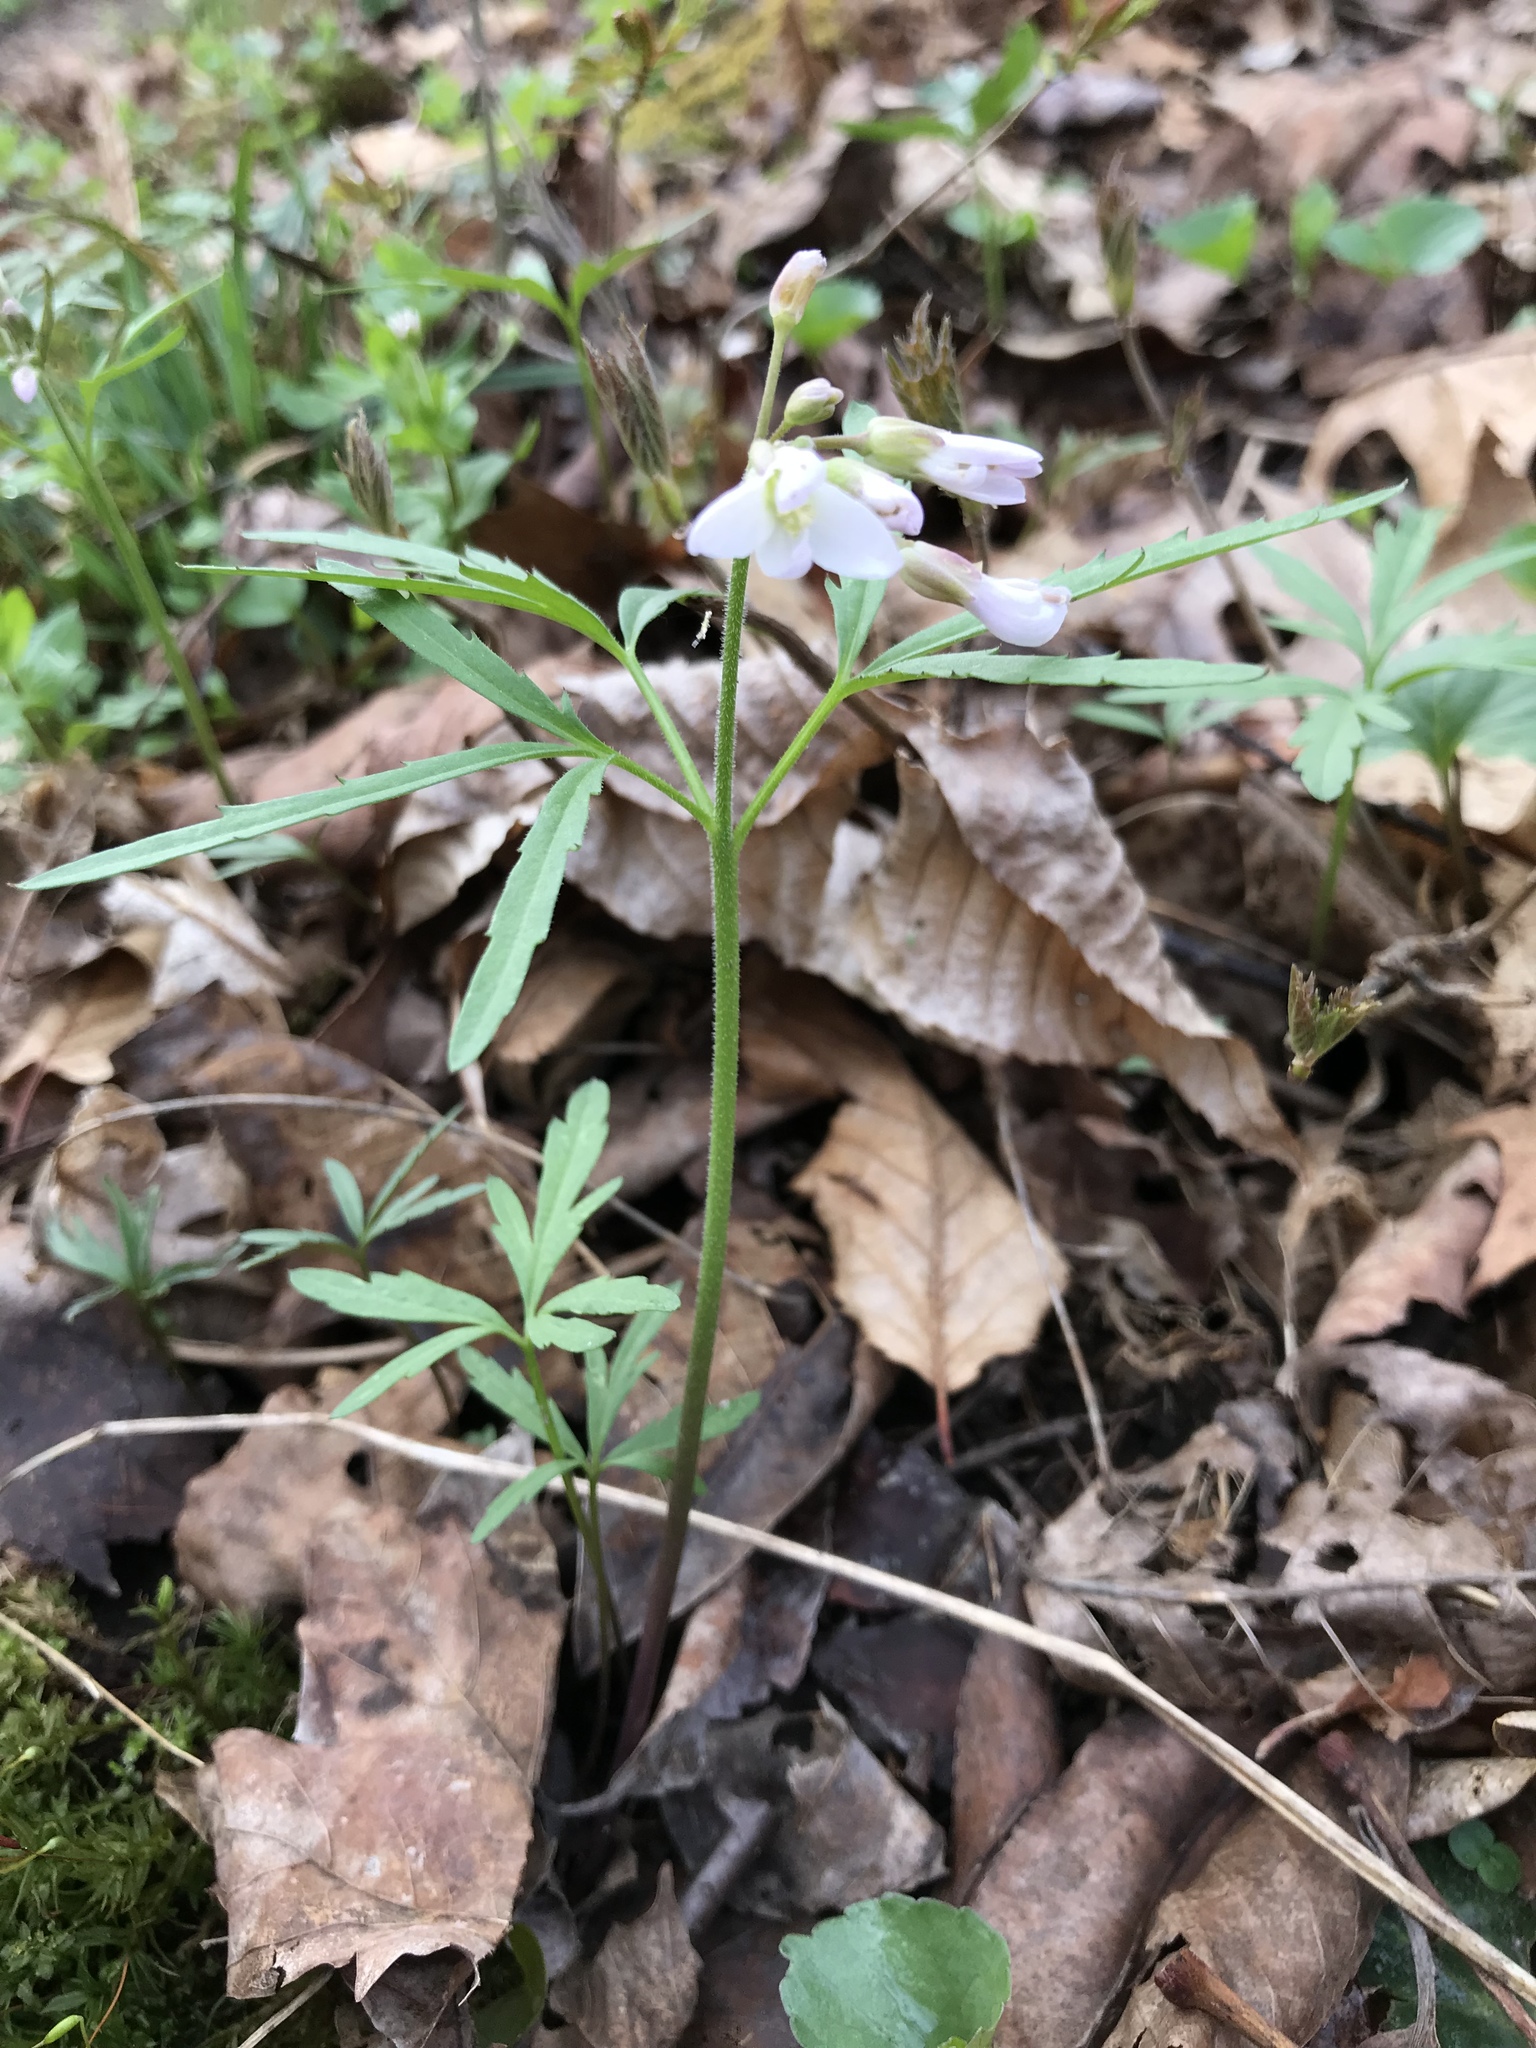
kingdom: Plantae
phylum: Tracheophyta
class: Magnoliopsida
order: Brassicales
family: Brassicaceae
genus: Cardamine
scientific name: Cardamine concatenata
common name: Cut-leaf toothcup
